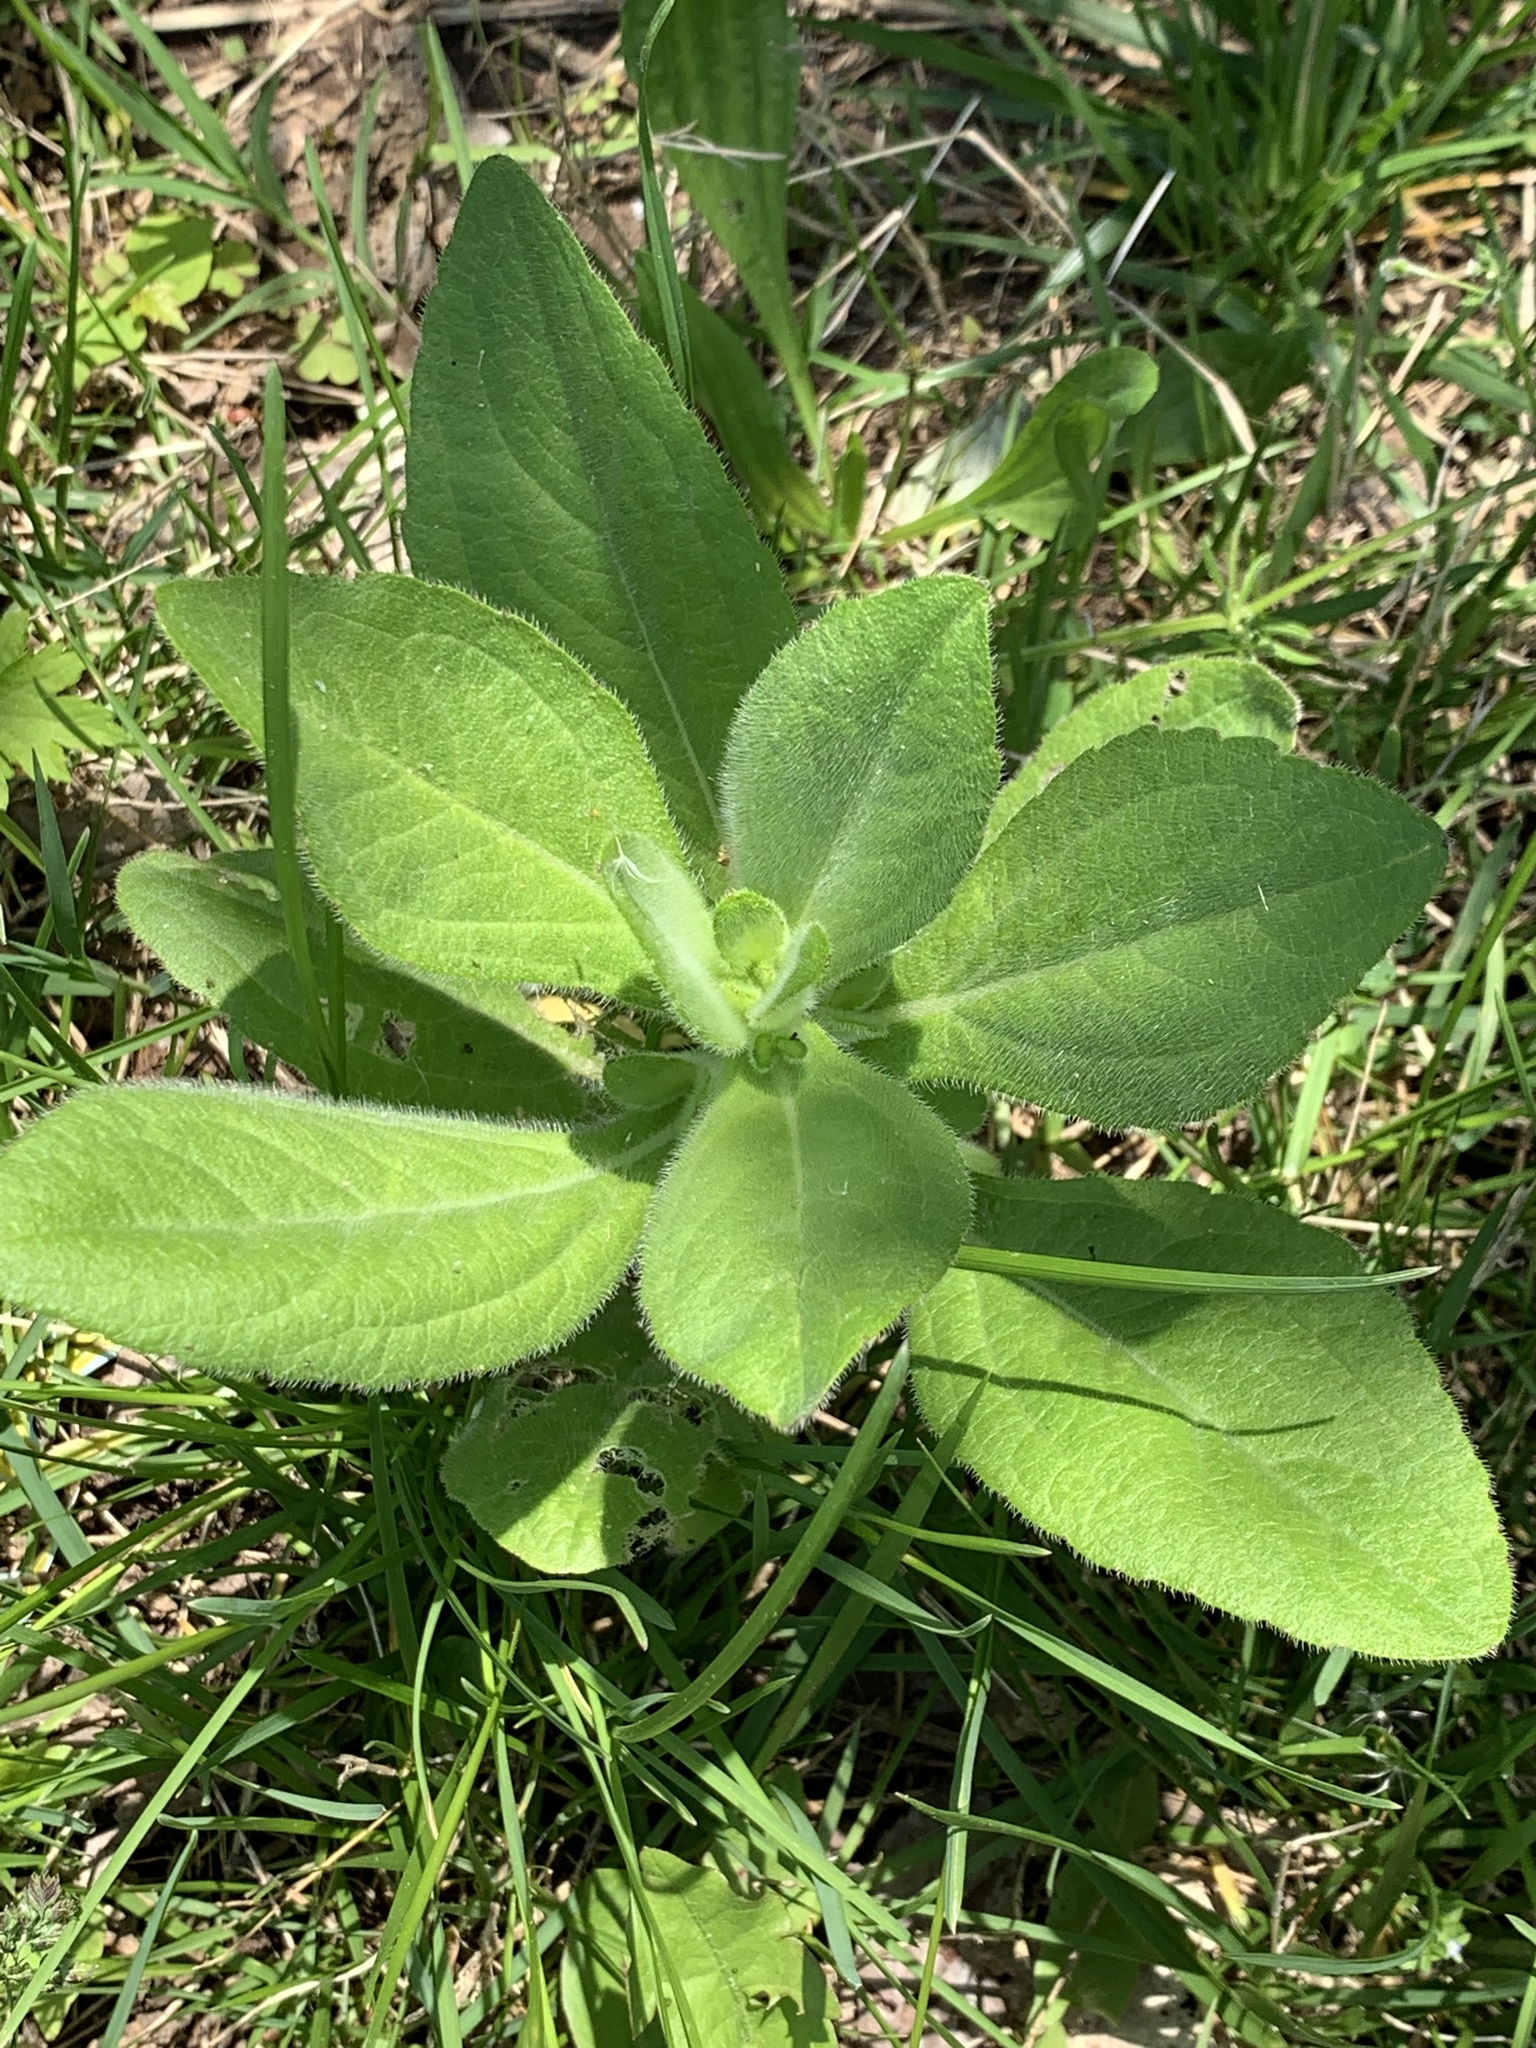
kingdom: Plantae
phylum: Tracheophyta
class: Magnoliopsida
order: Asterales
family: Asteraceae
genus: Rudbeckia
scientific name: Rudbeckia hirta
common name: Black-eyed-susan
